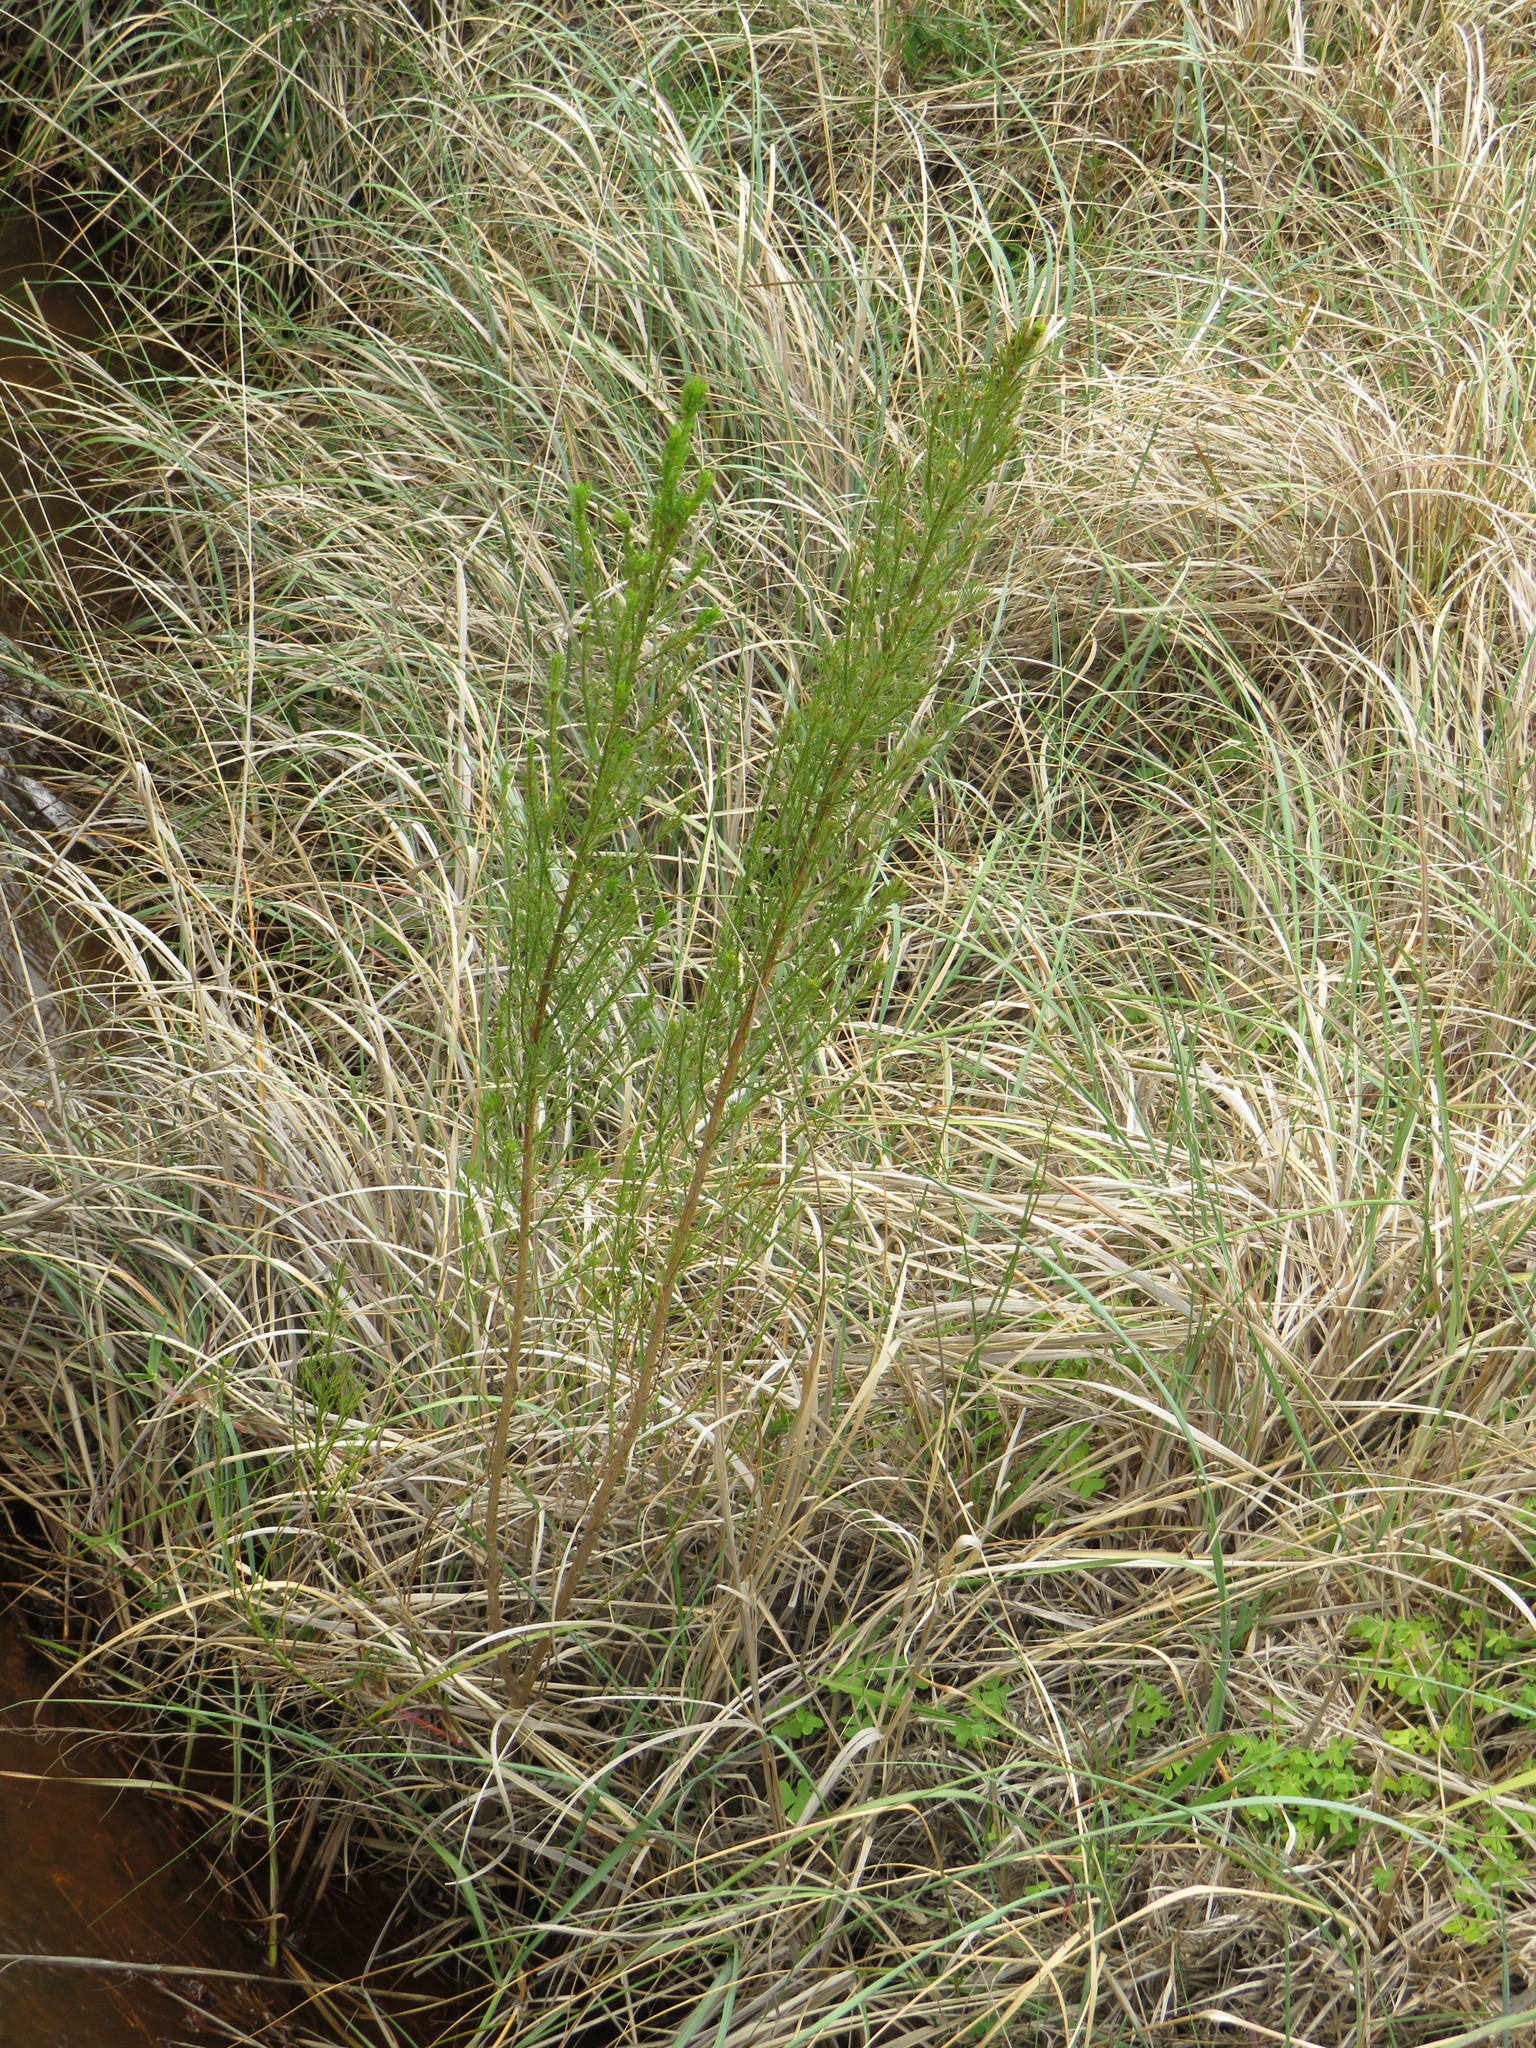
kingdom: Plantae
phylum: Tracheophyta
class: Magnoliopsida
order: Fabales
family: Fabaceae
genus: Psoralea
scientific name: Psoralea pinnata
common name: African scurfpea
